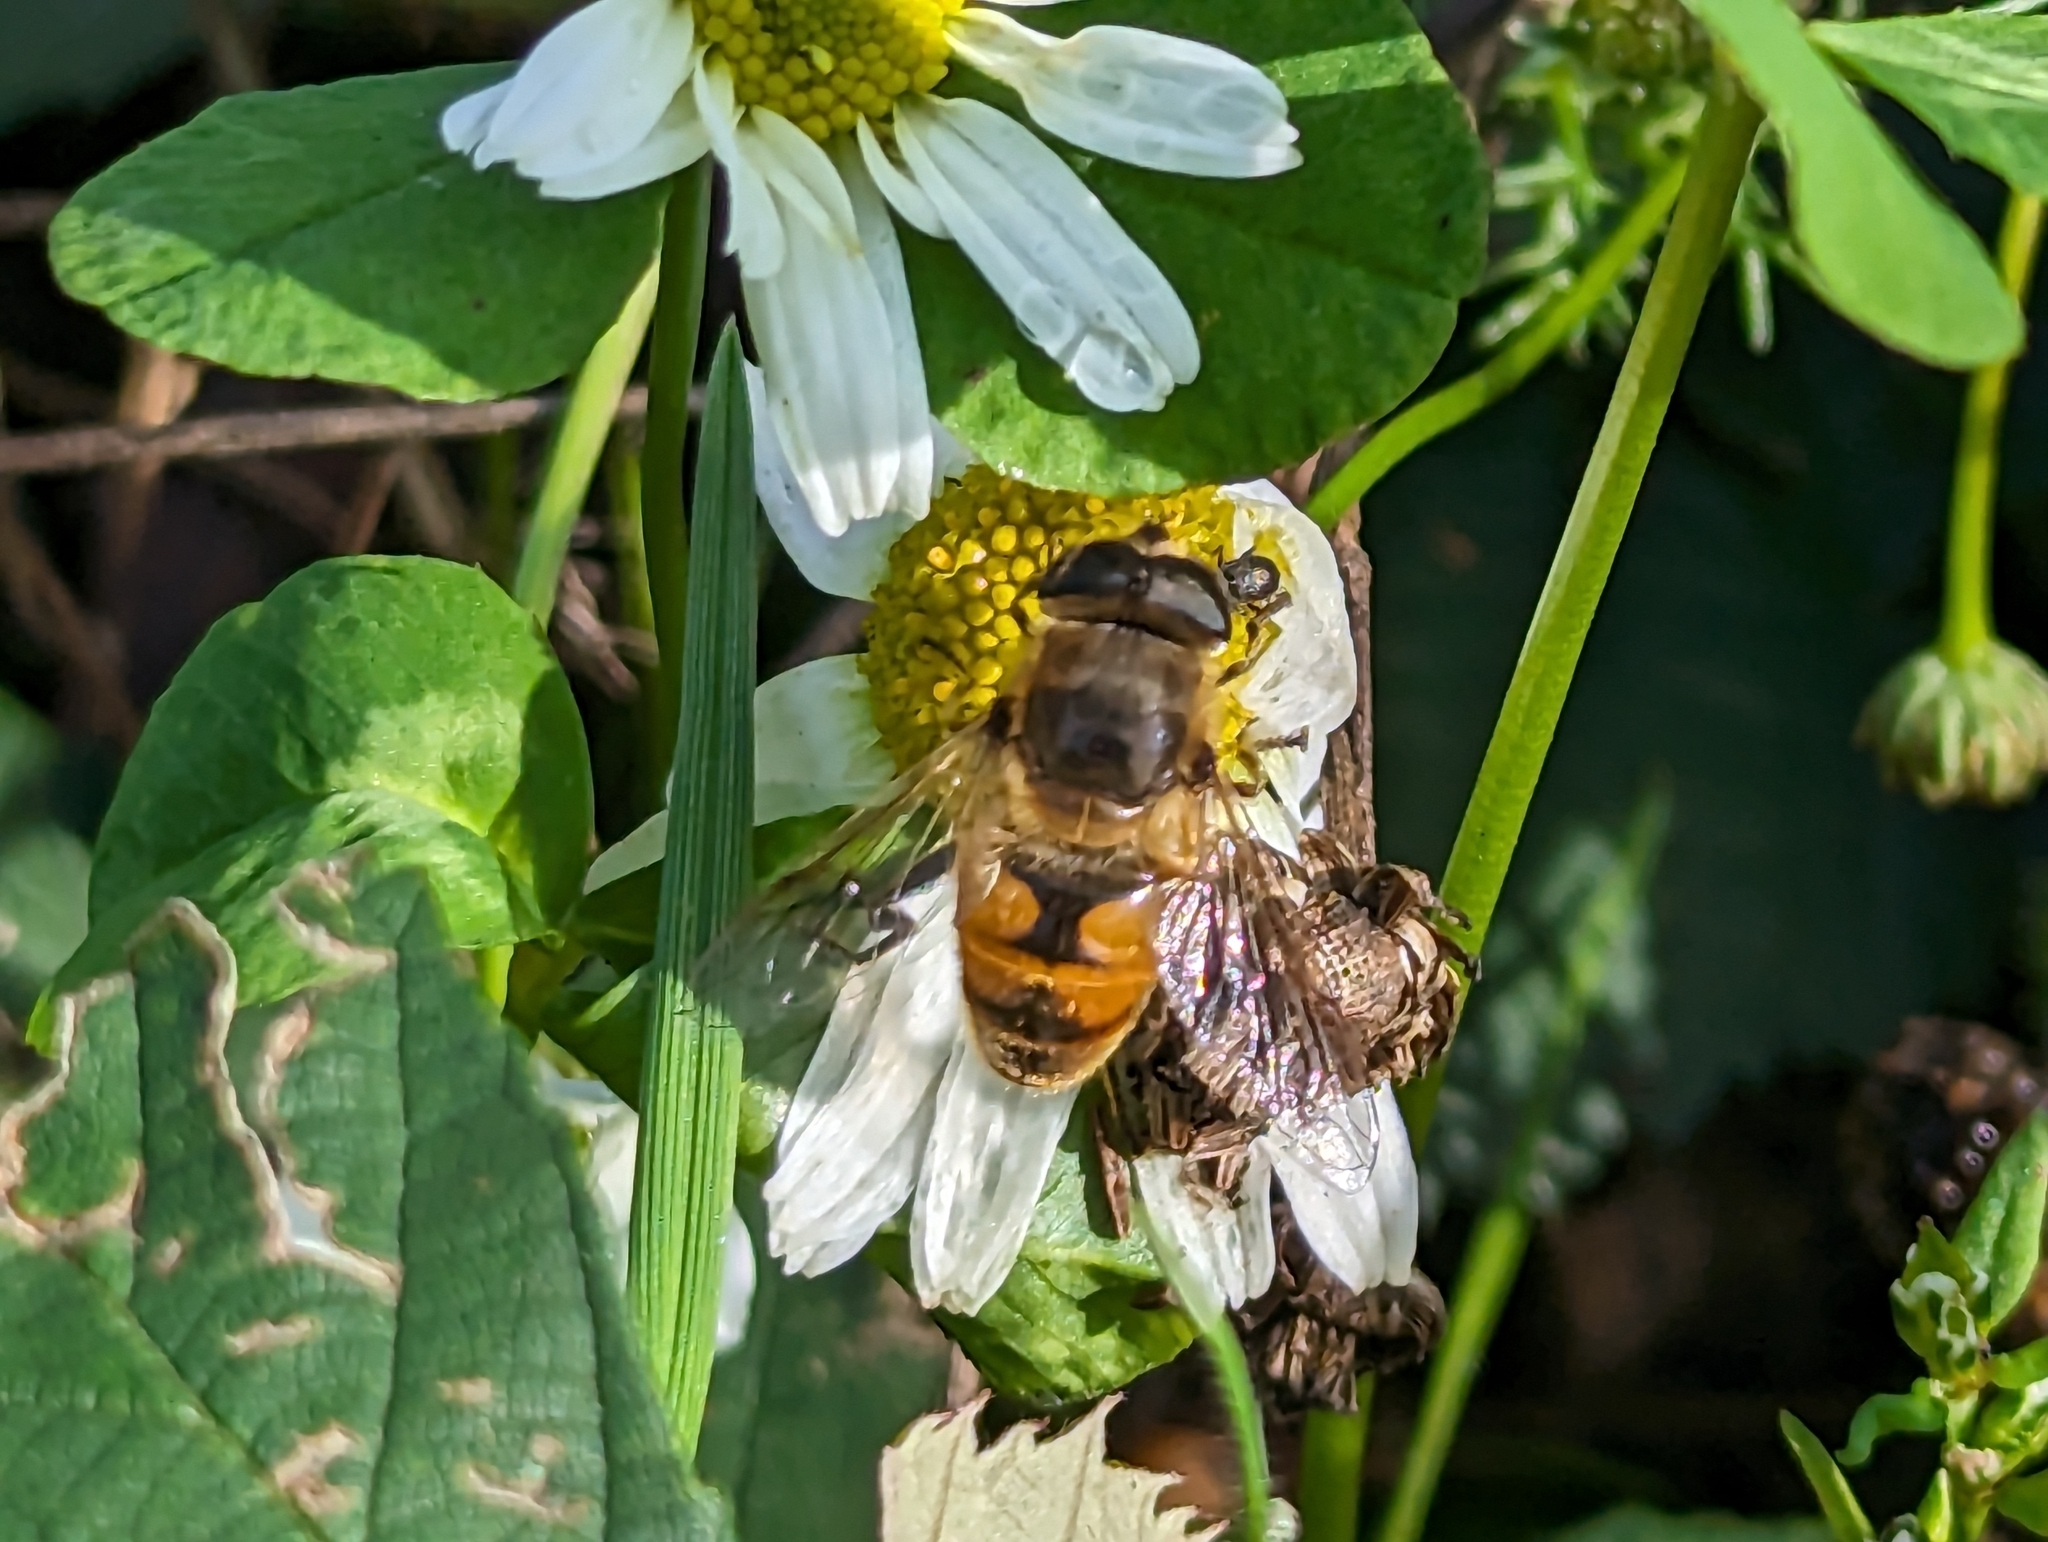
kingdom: Animalia
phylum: Arthropoda
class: Insecta
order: Diptera
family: Syrphidae
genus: Eristalis
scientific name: Eristalis tenax
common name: Drone fly
